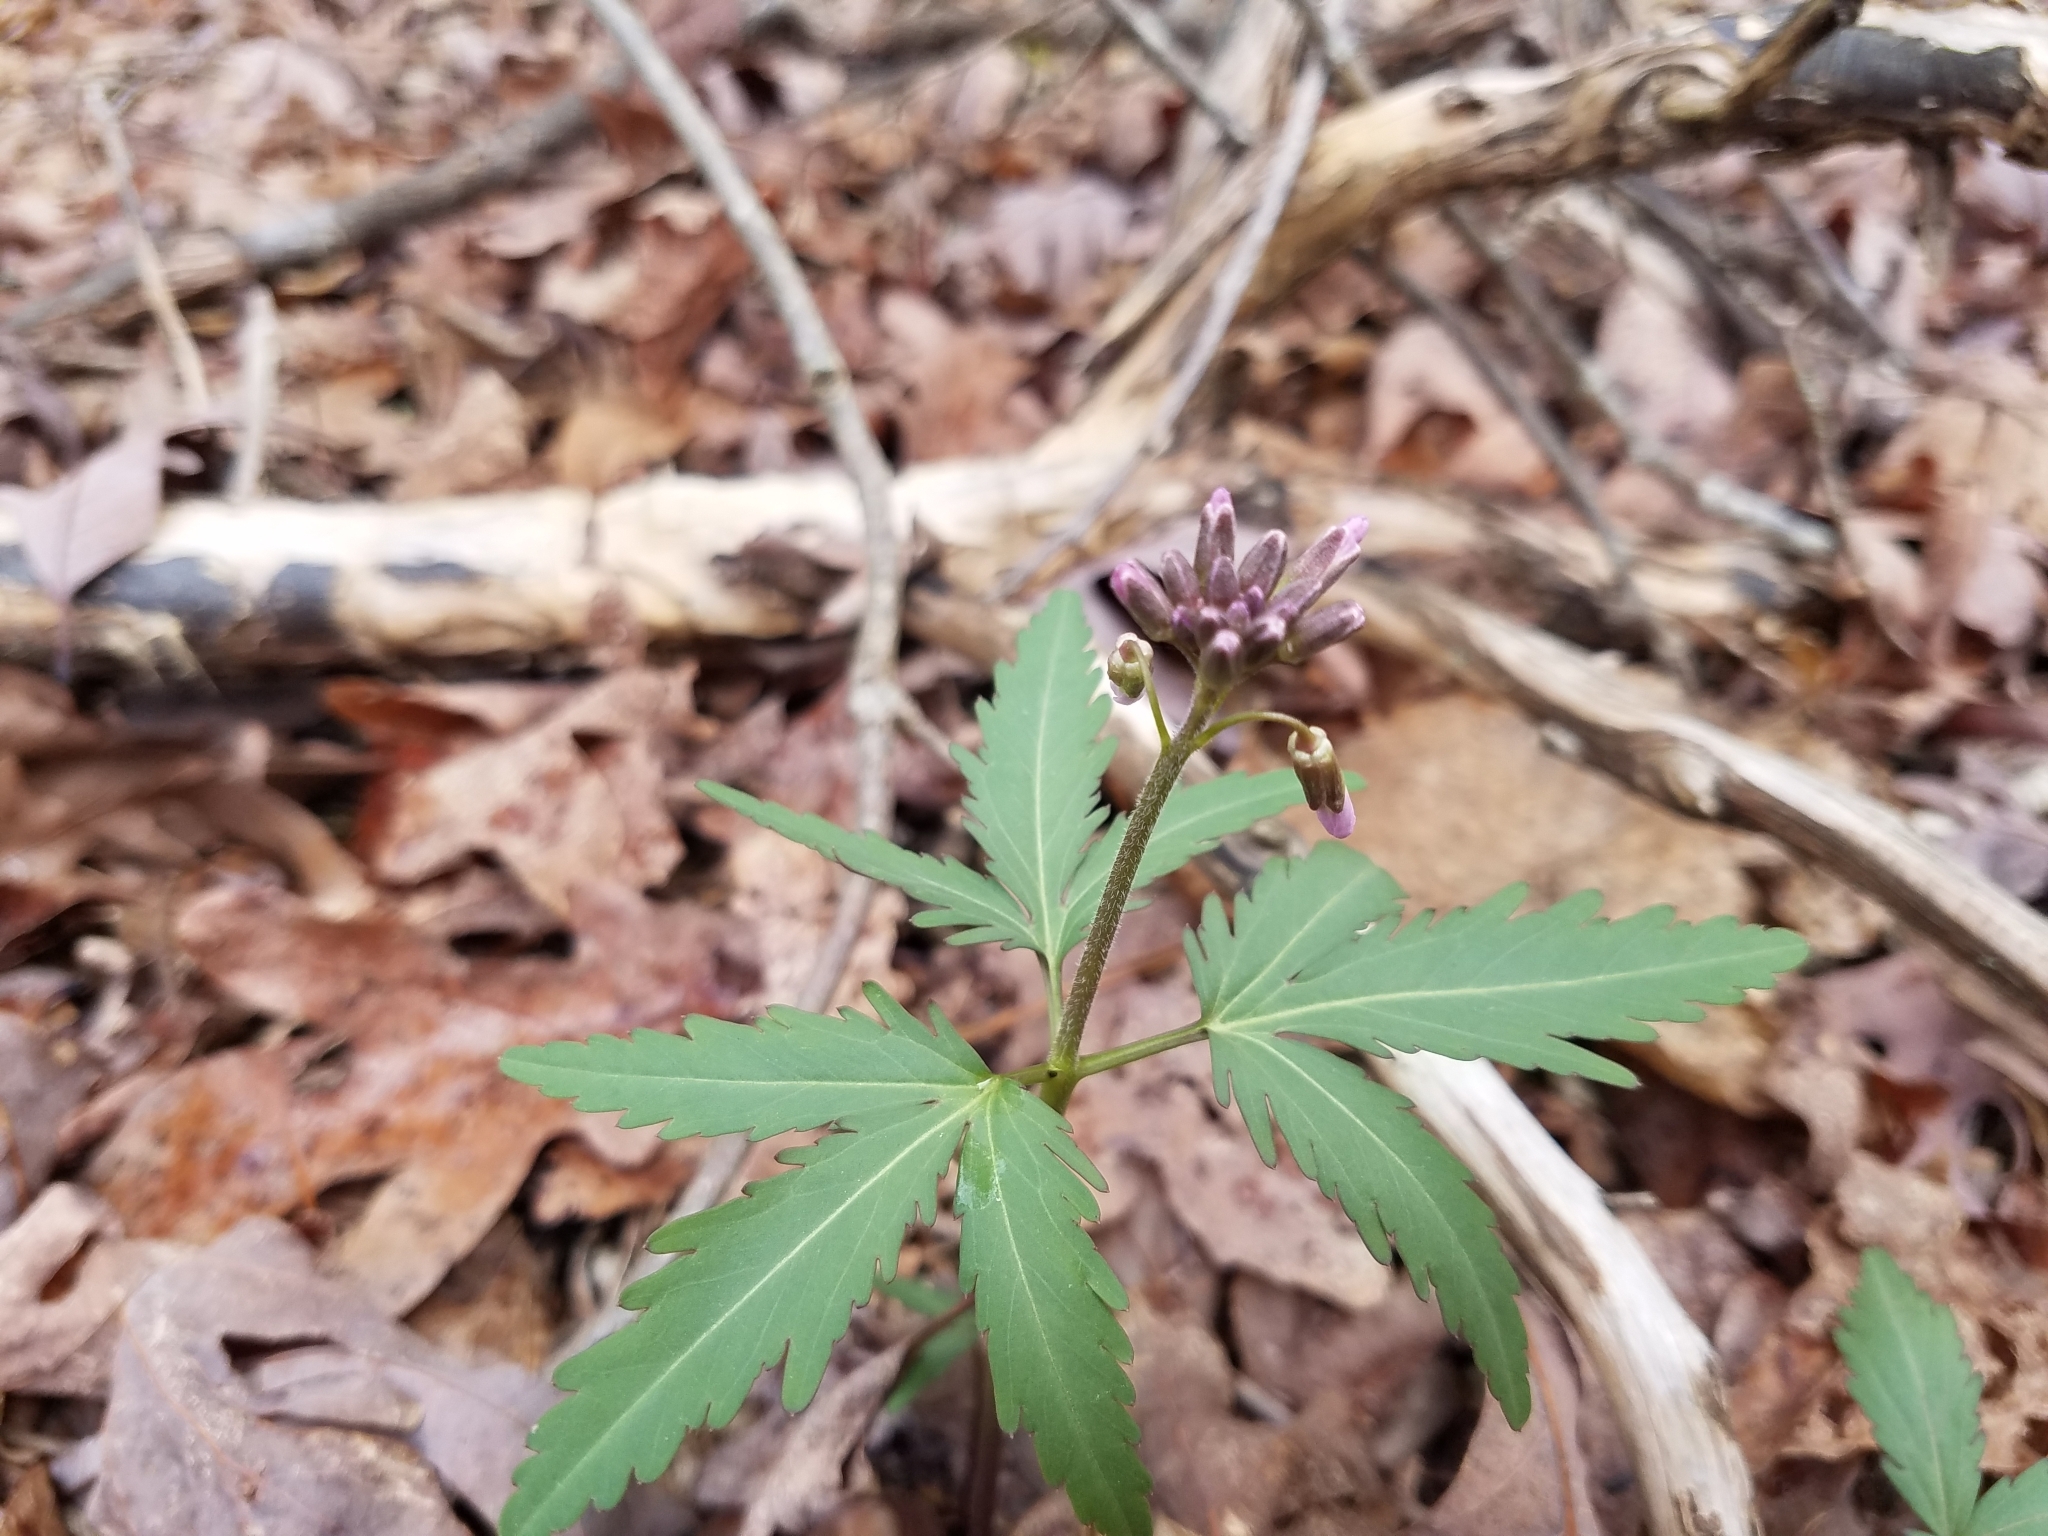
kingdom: Plantae
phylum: Tracheophyta
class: Magnoliopsida
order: Brassicales
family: Brassicaceae
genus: Cardamine
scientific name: Cardamine concatenata
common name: Cut-leaf toothcup
